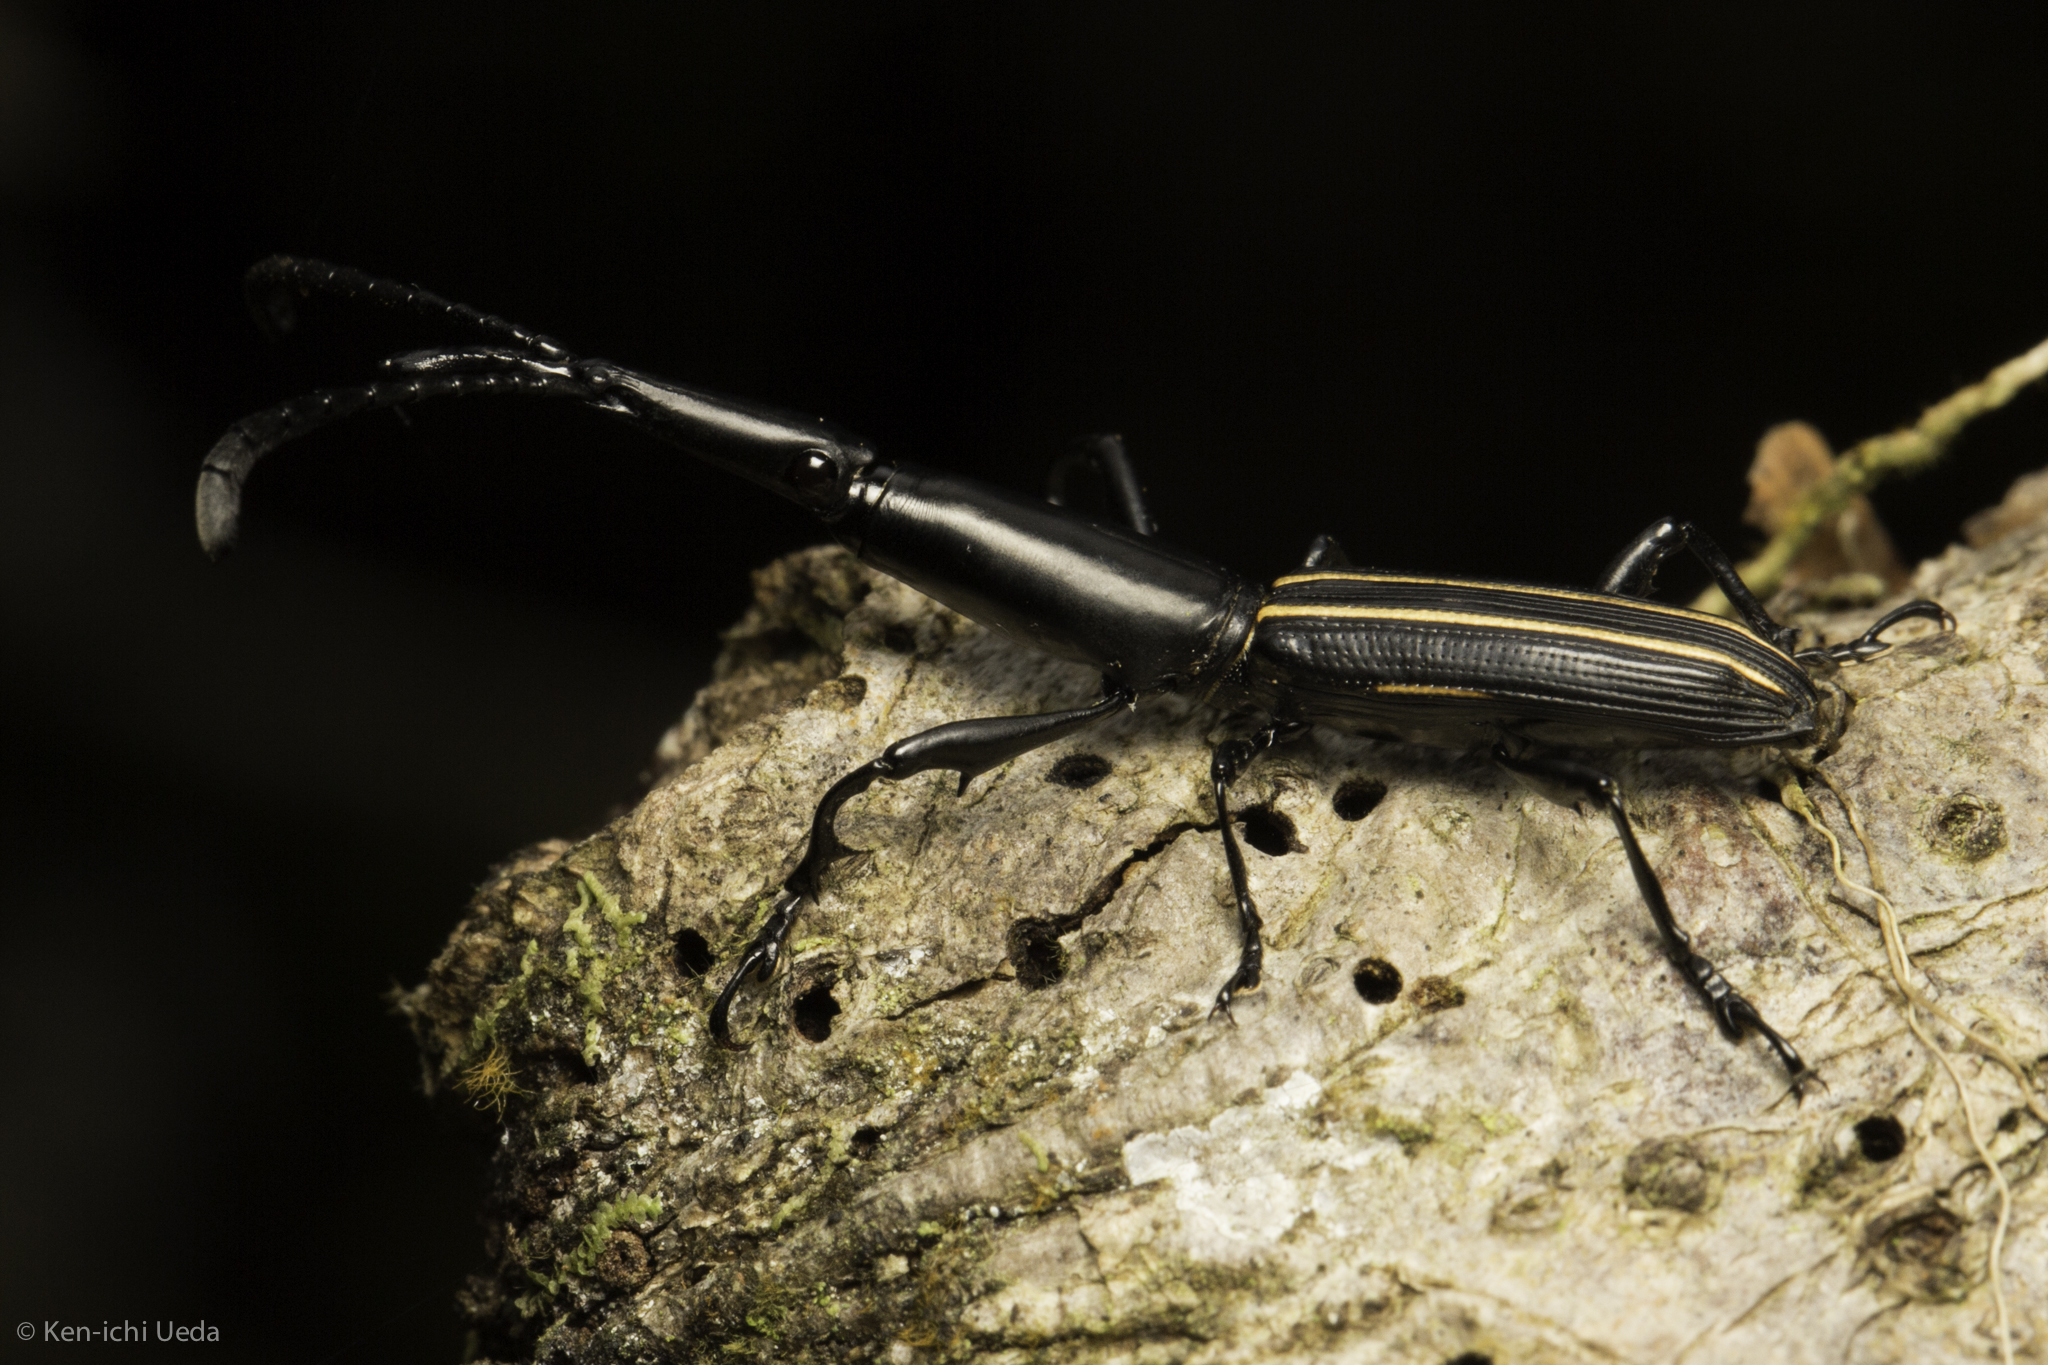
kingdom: Animalia
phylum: Arthropoda
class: Insecta
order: Coleoptera
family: Brentidae
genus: Claeoderes
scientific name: Claeoderes radulirostris
